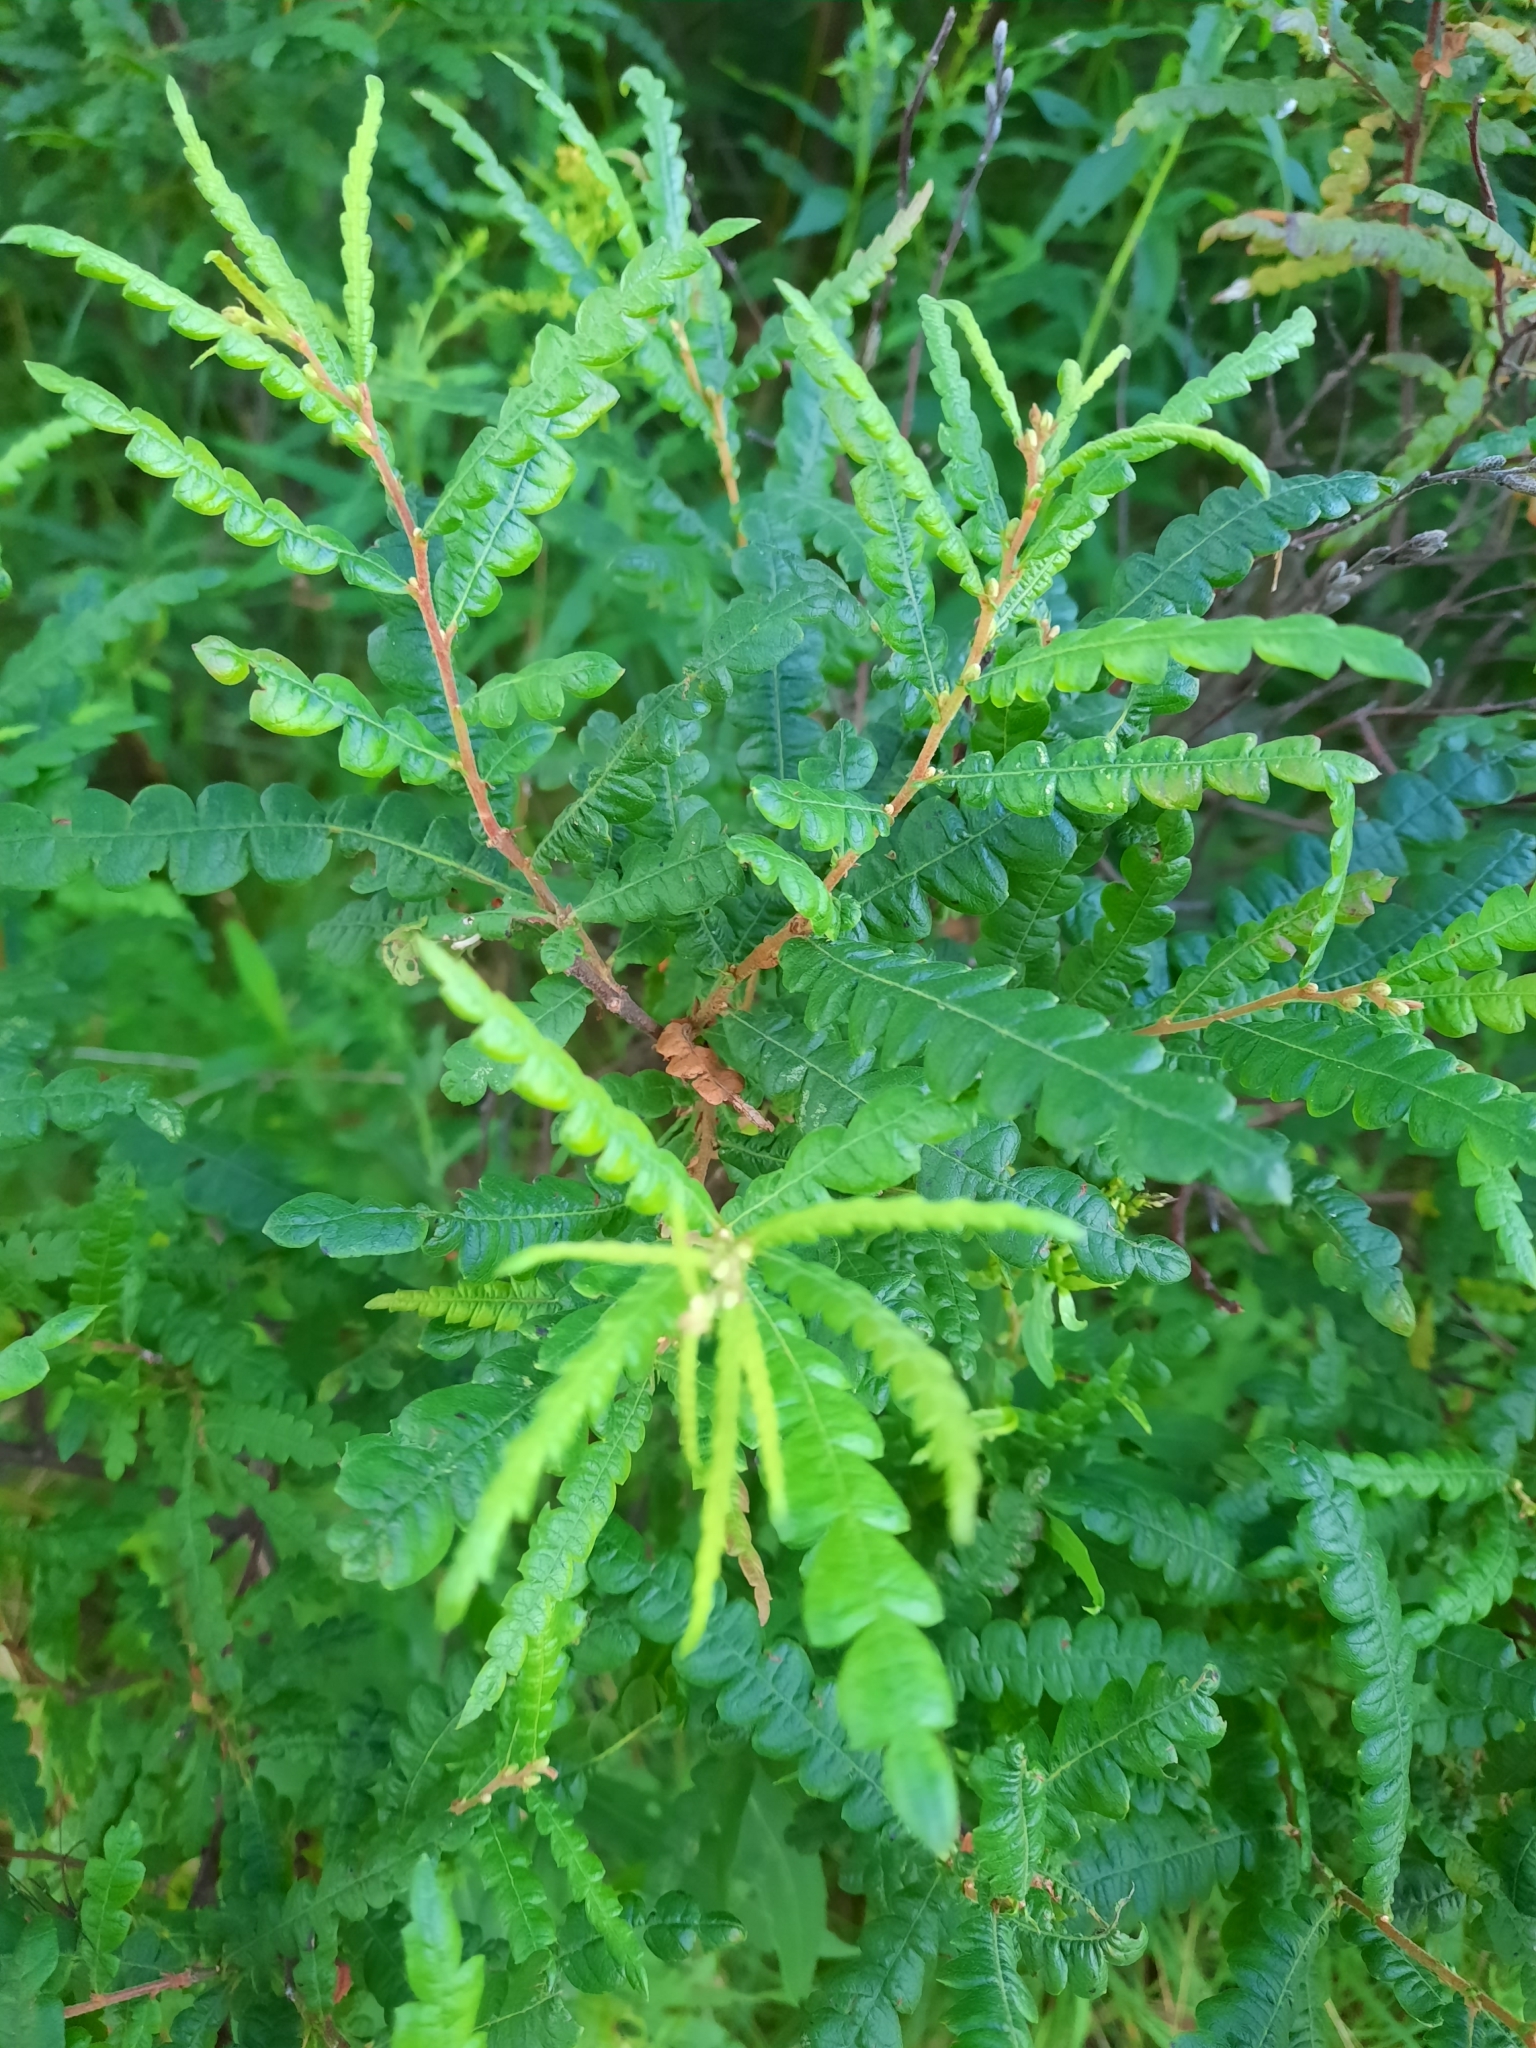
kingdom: Plantae
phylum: Tracheophyta
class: Magnoliopsida
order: Fagales
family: Myricaceae
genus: Comptonia
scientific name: Comptonia peregrina
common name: Sweet-fern
